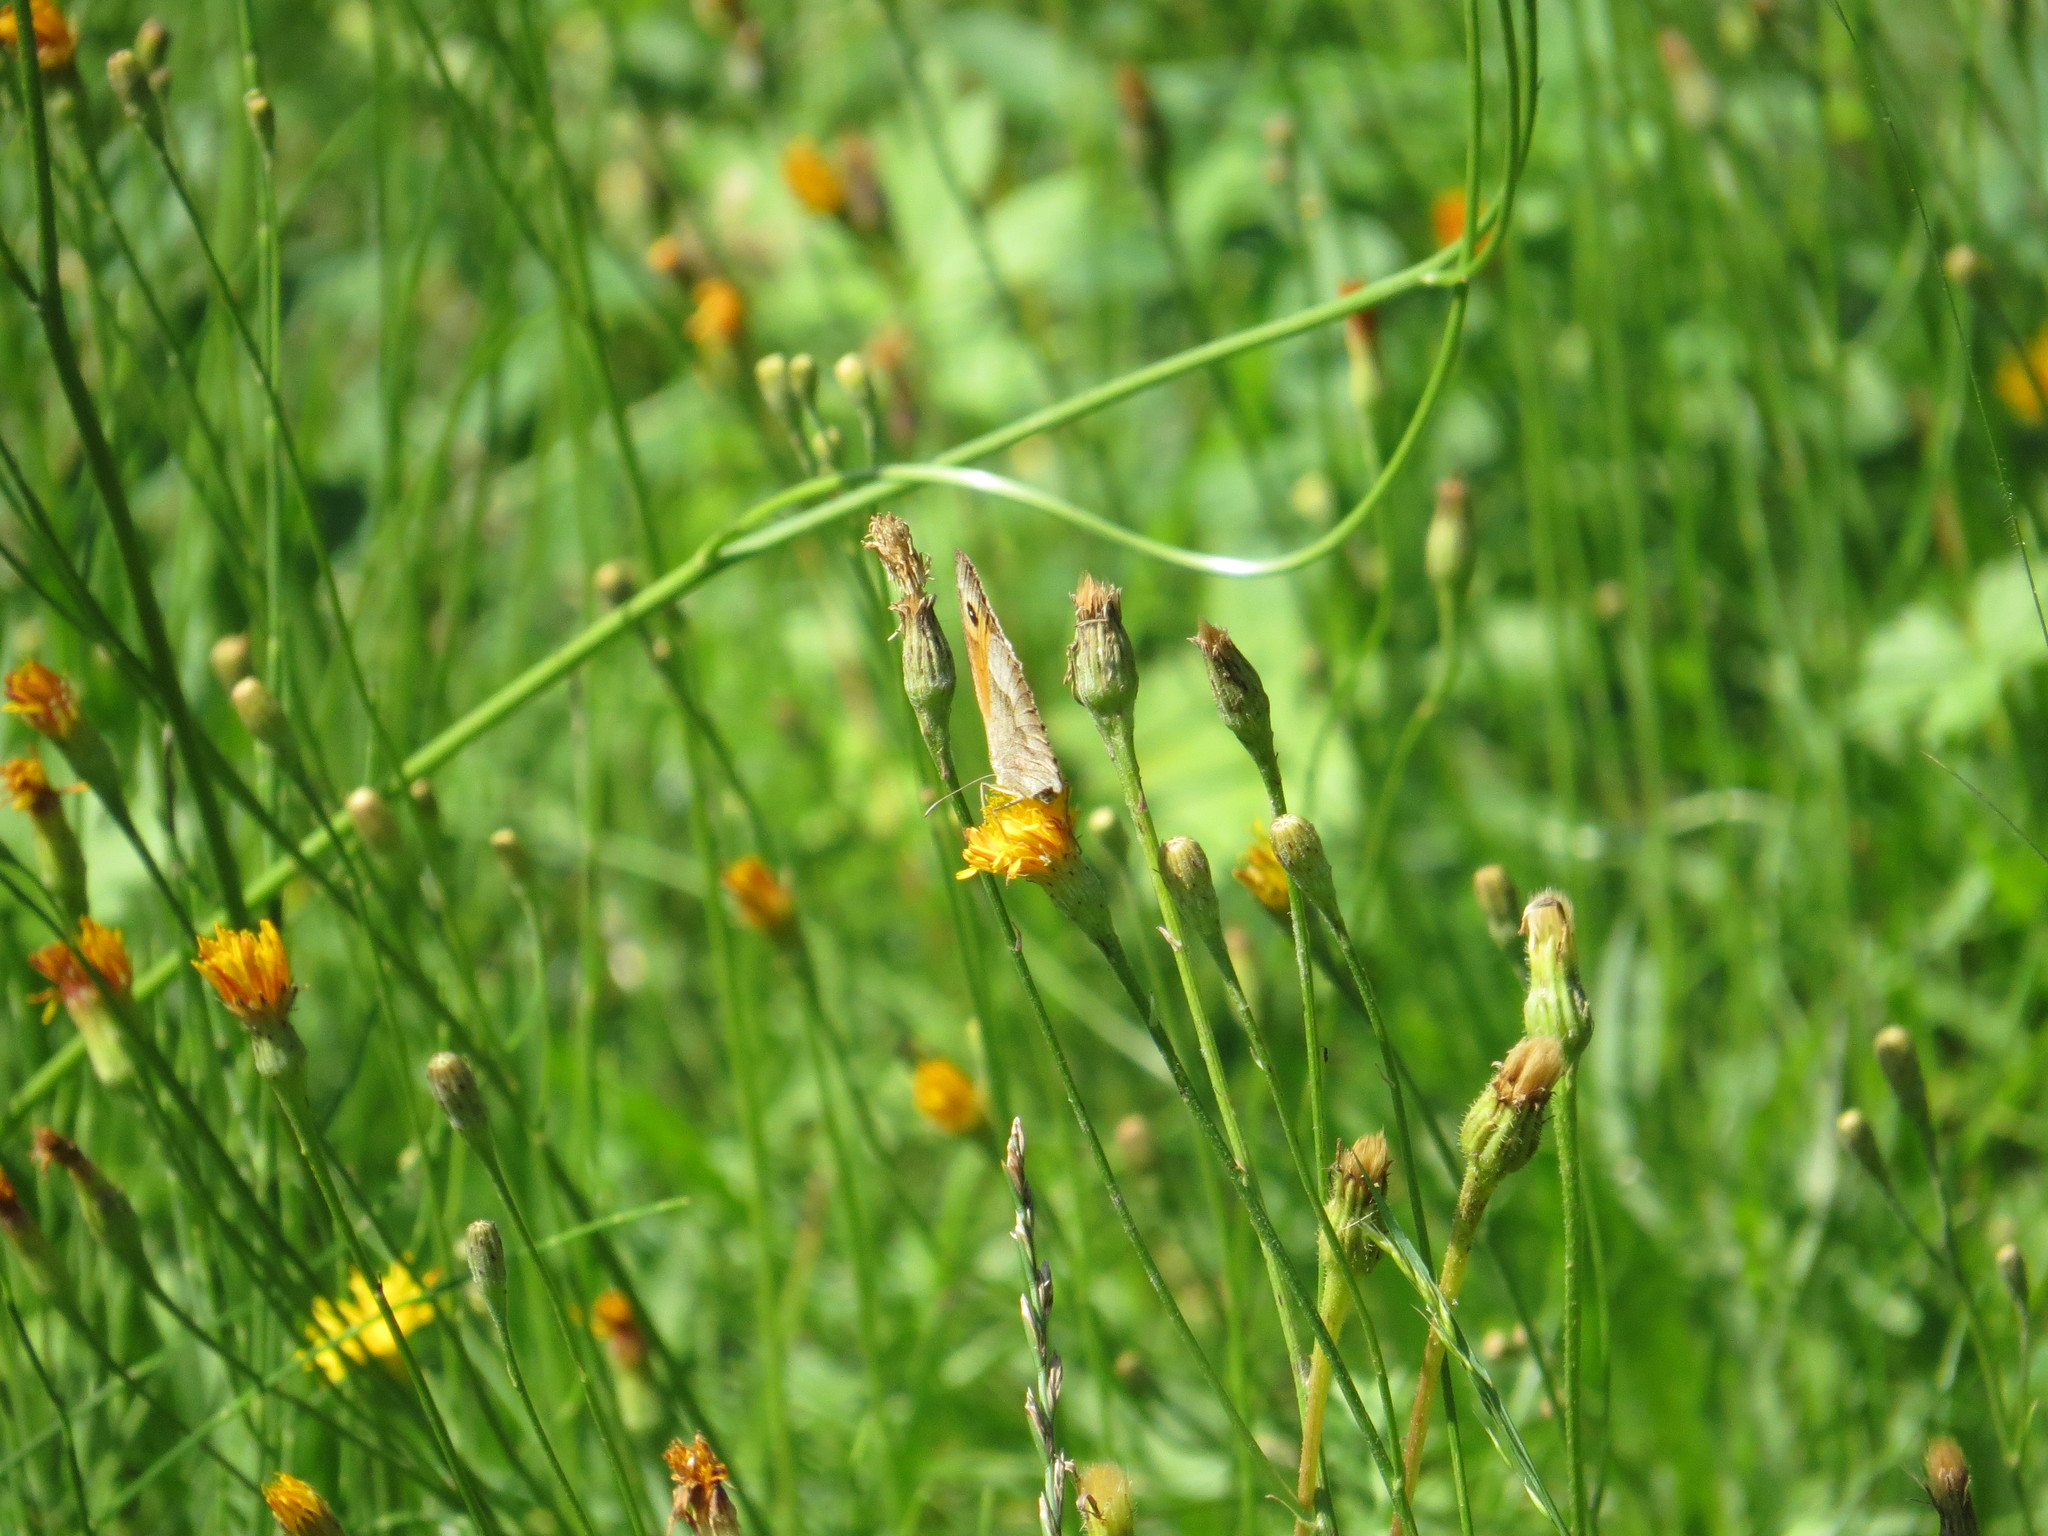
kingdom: Animalia
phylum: Arthropoda
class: Insecta
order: Lepidoptera
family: Nymphalidae
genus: Maniola
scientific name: Maniola jurtina
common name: Meadow brown
